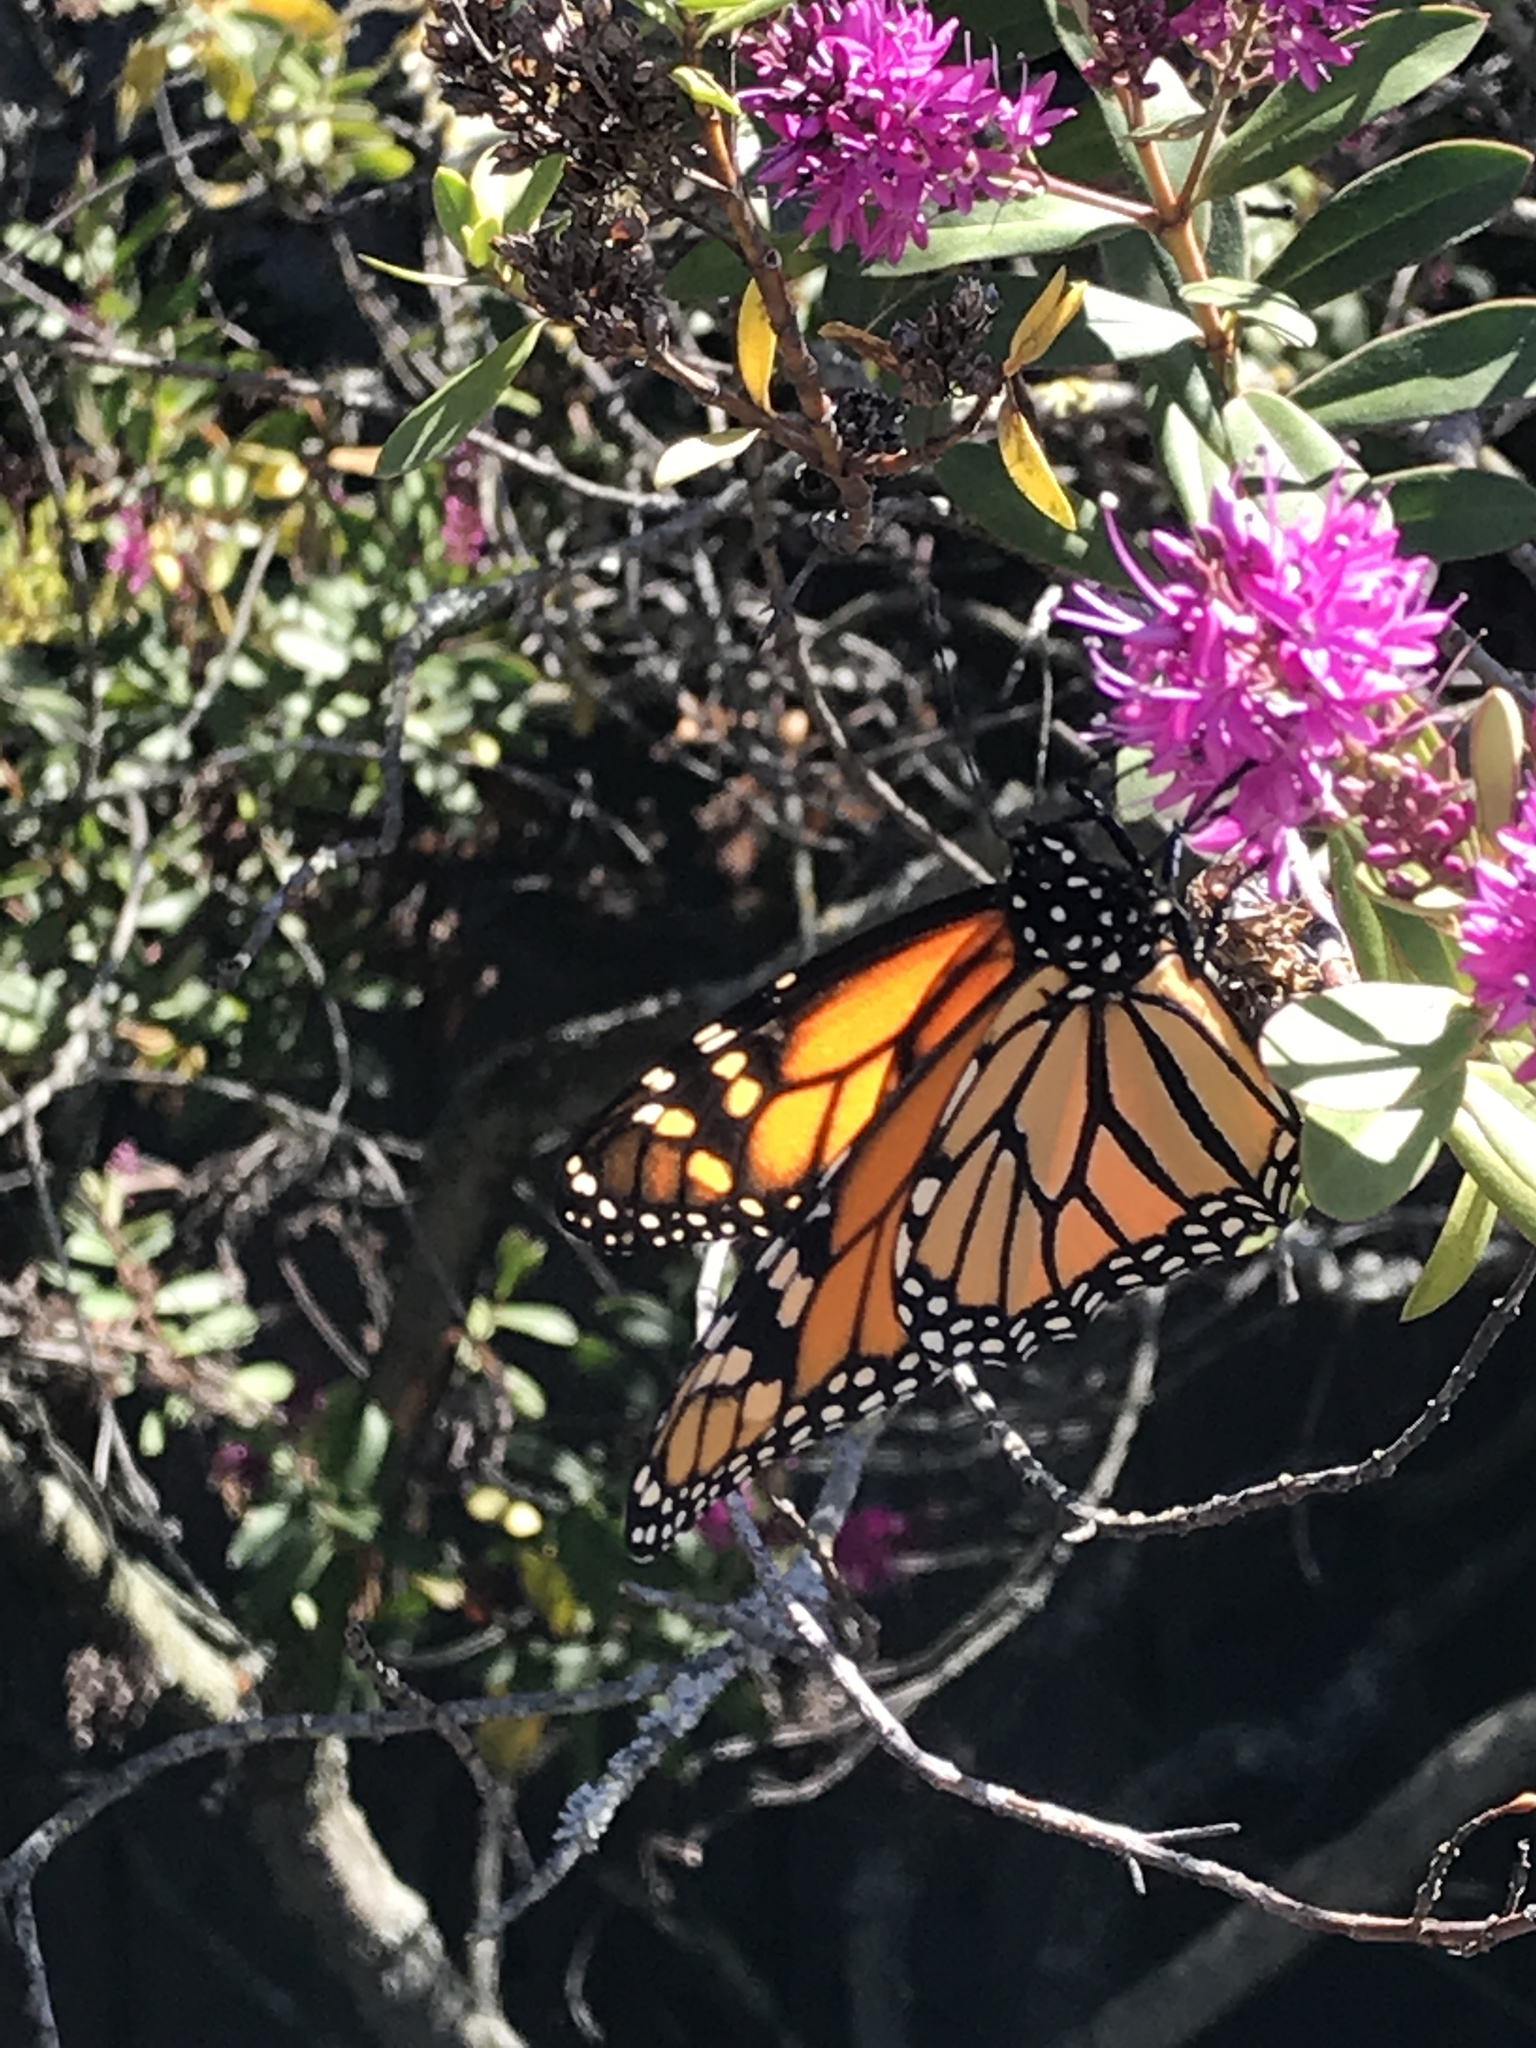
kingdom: Animalia
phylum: Arthropoda
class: Insecta
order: Lepidoptera
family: Nymphalidae
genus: Danaus
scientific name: Danaus plexippus
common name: Monarch
